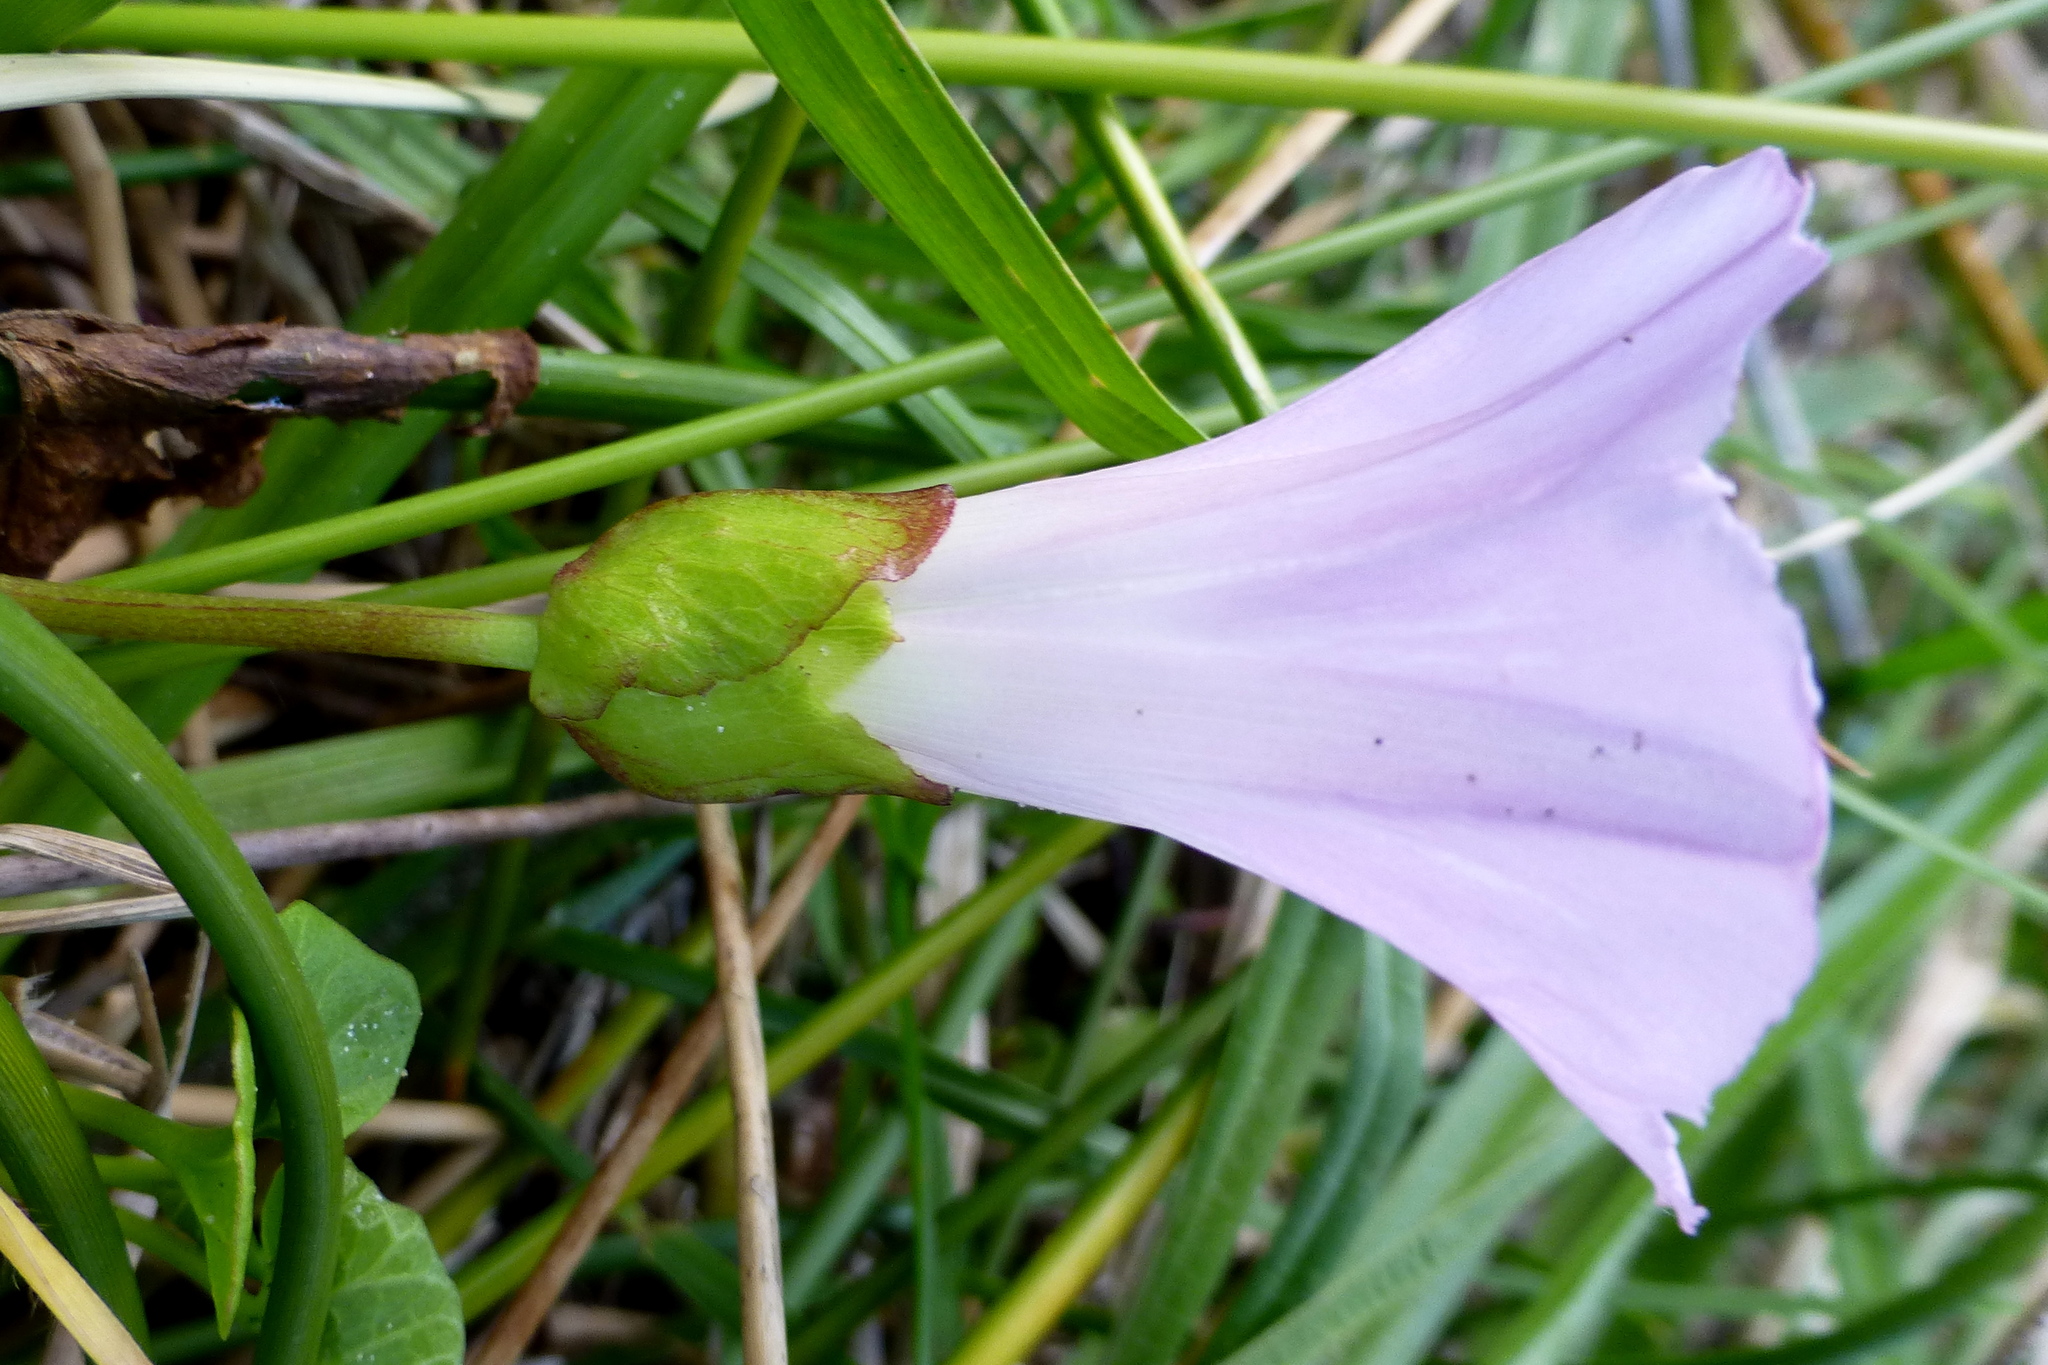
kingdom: Plantae
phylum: Tracheophyta
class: Magnoliopsida
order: Solanales
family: Convolvulaceae
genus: Calystegia
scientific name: Calystegia soldanella
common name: Sea bindweed
